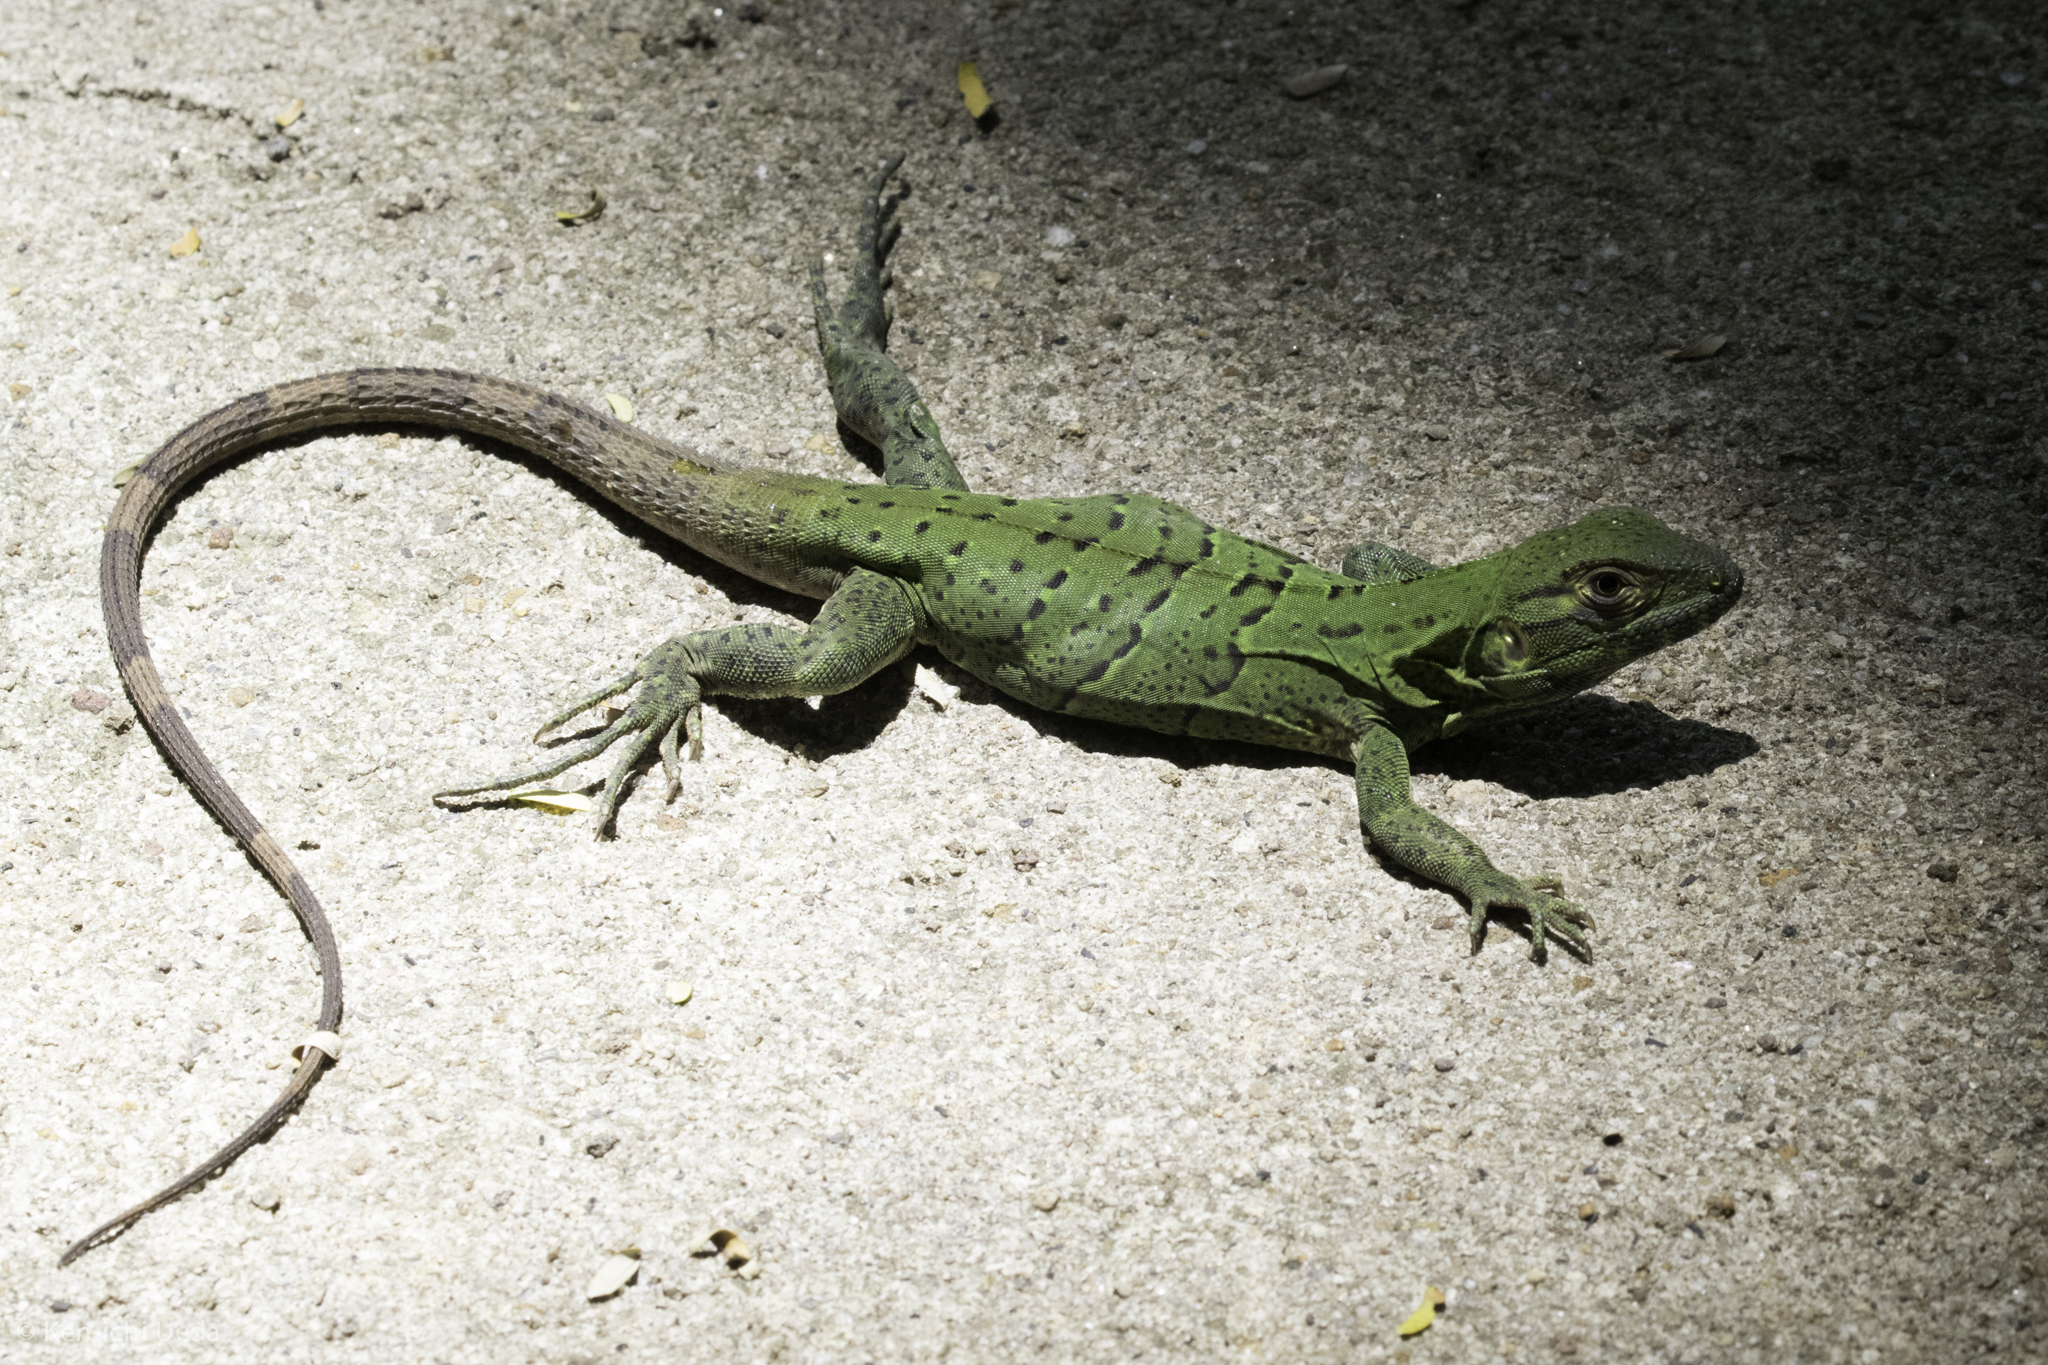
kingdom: Animalia
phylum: Chordata
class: Squamata
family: Iguanidae
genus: Ctenosaura
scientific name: Ctenosaura similis
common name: Black spiny-tailed iguana
